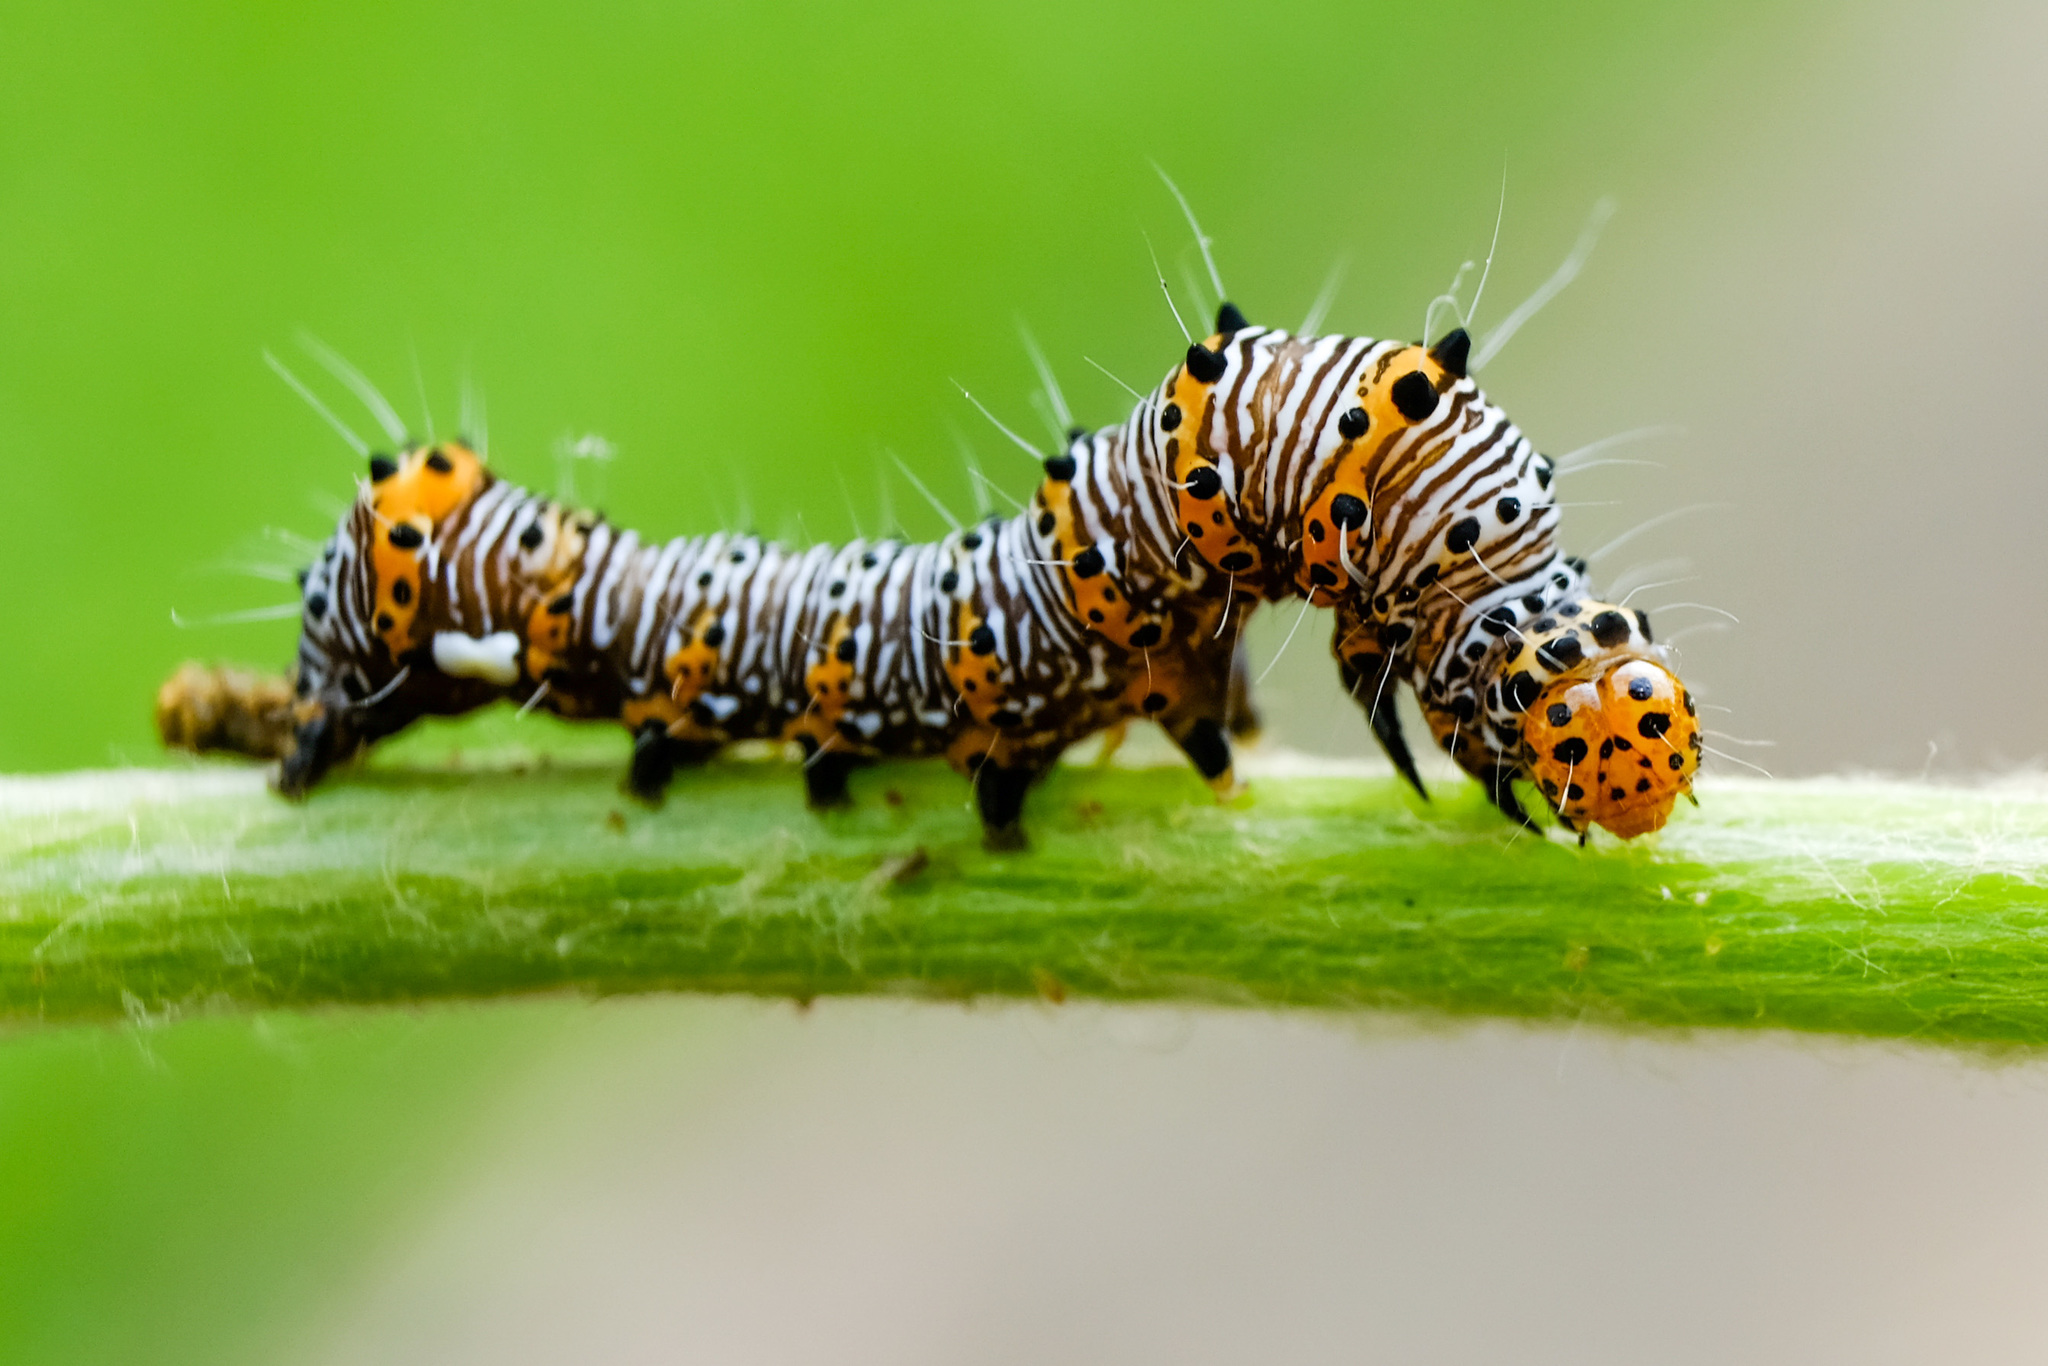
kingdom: Animalia
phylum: Arthropoda
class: Insecta
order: Lepidoptera
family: Noctuidae
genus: Alypia
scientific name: Alypia octomaculata
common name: Eight-spotted forester
